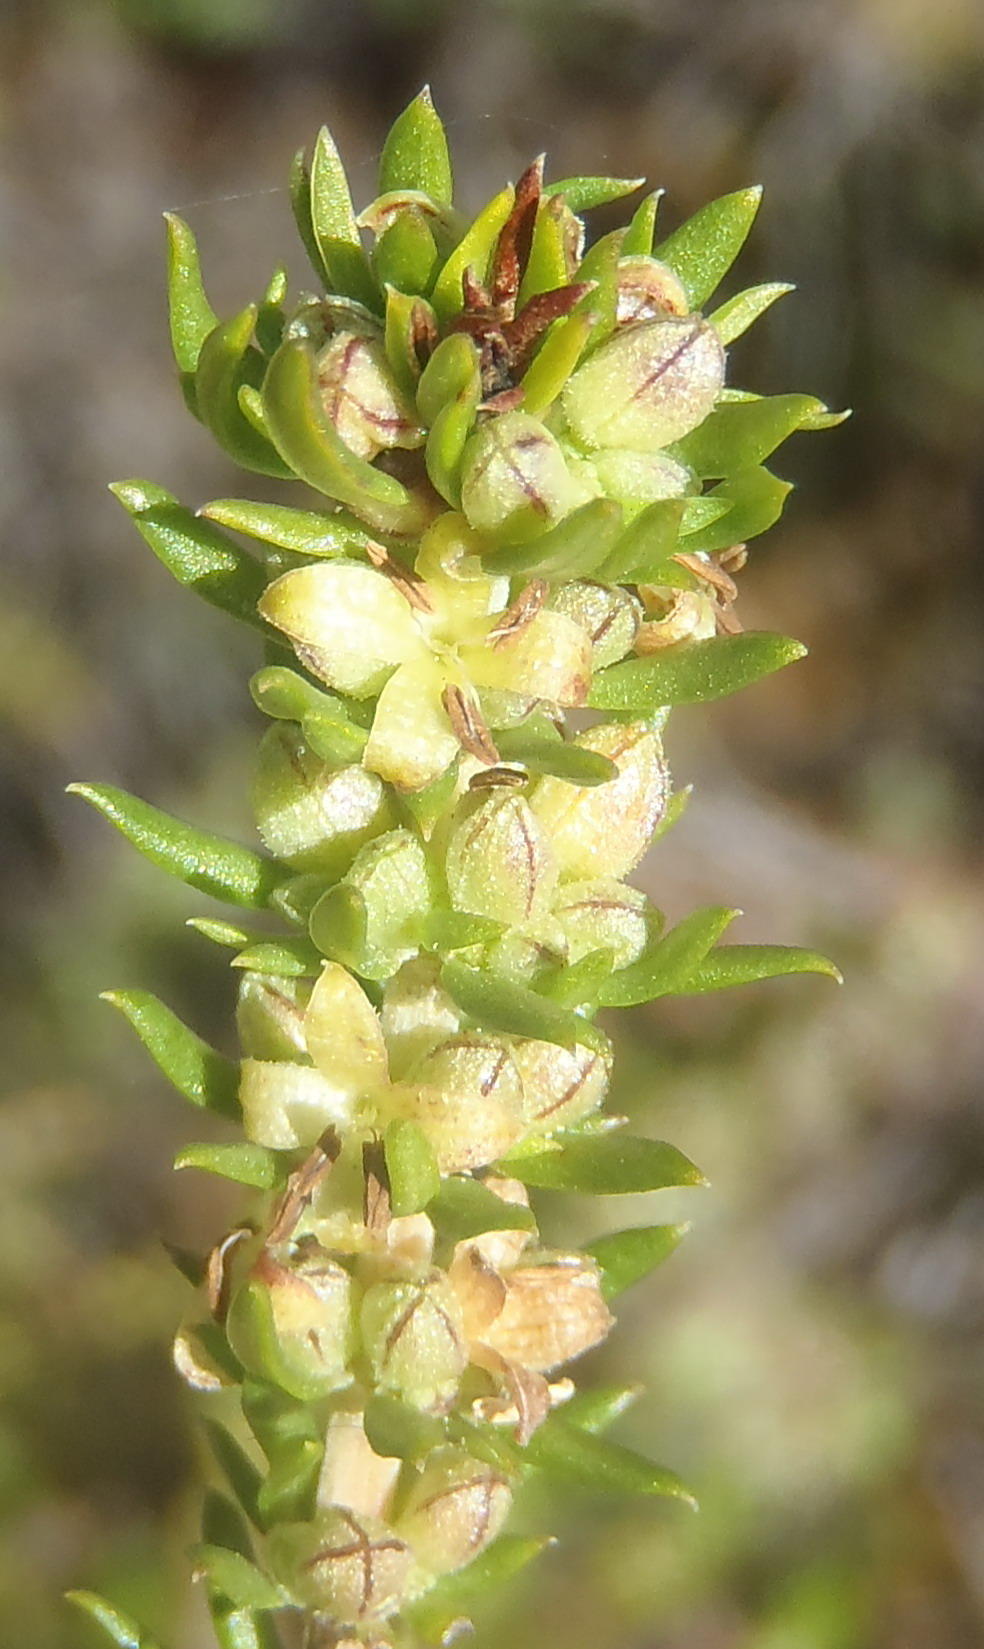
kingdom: Plantae
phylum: Tracheophyta
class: Magnoliopsida
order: Gentianales
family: Rubiaceae
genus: Anthospermum
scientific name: Anthospermum aethiopicum
